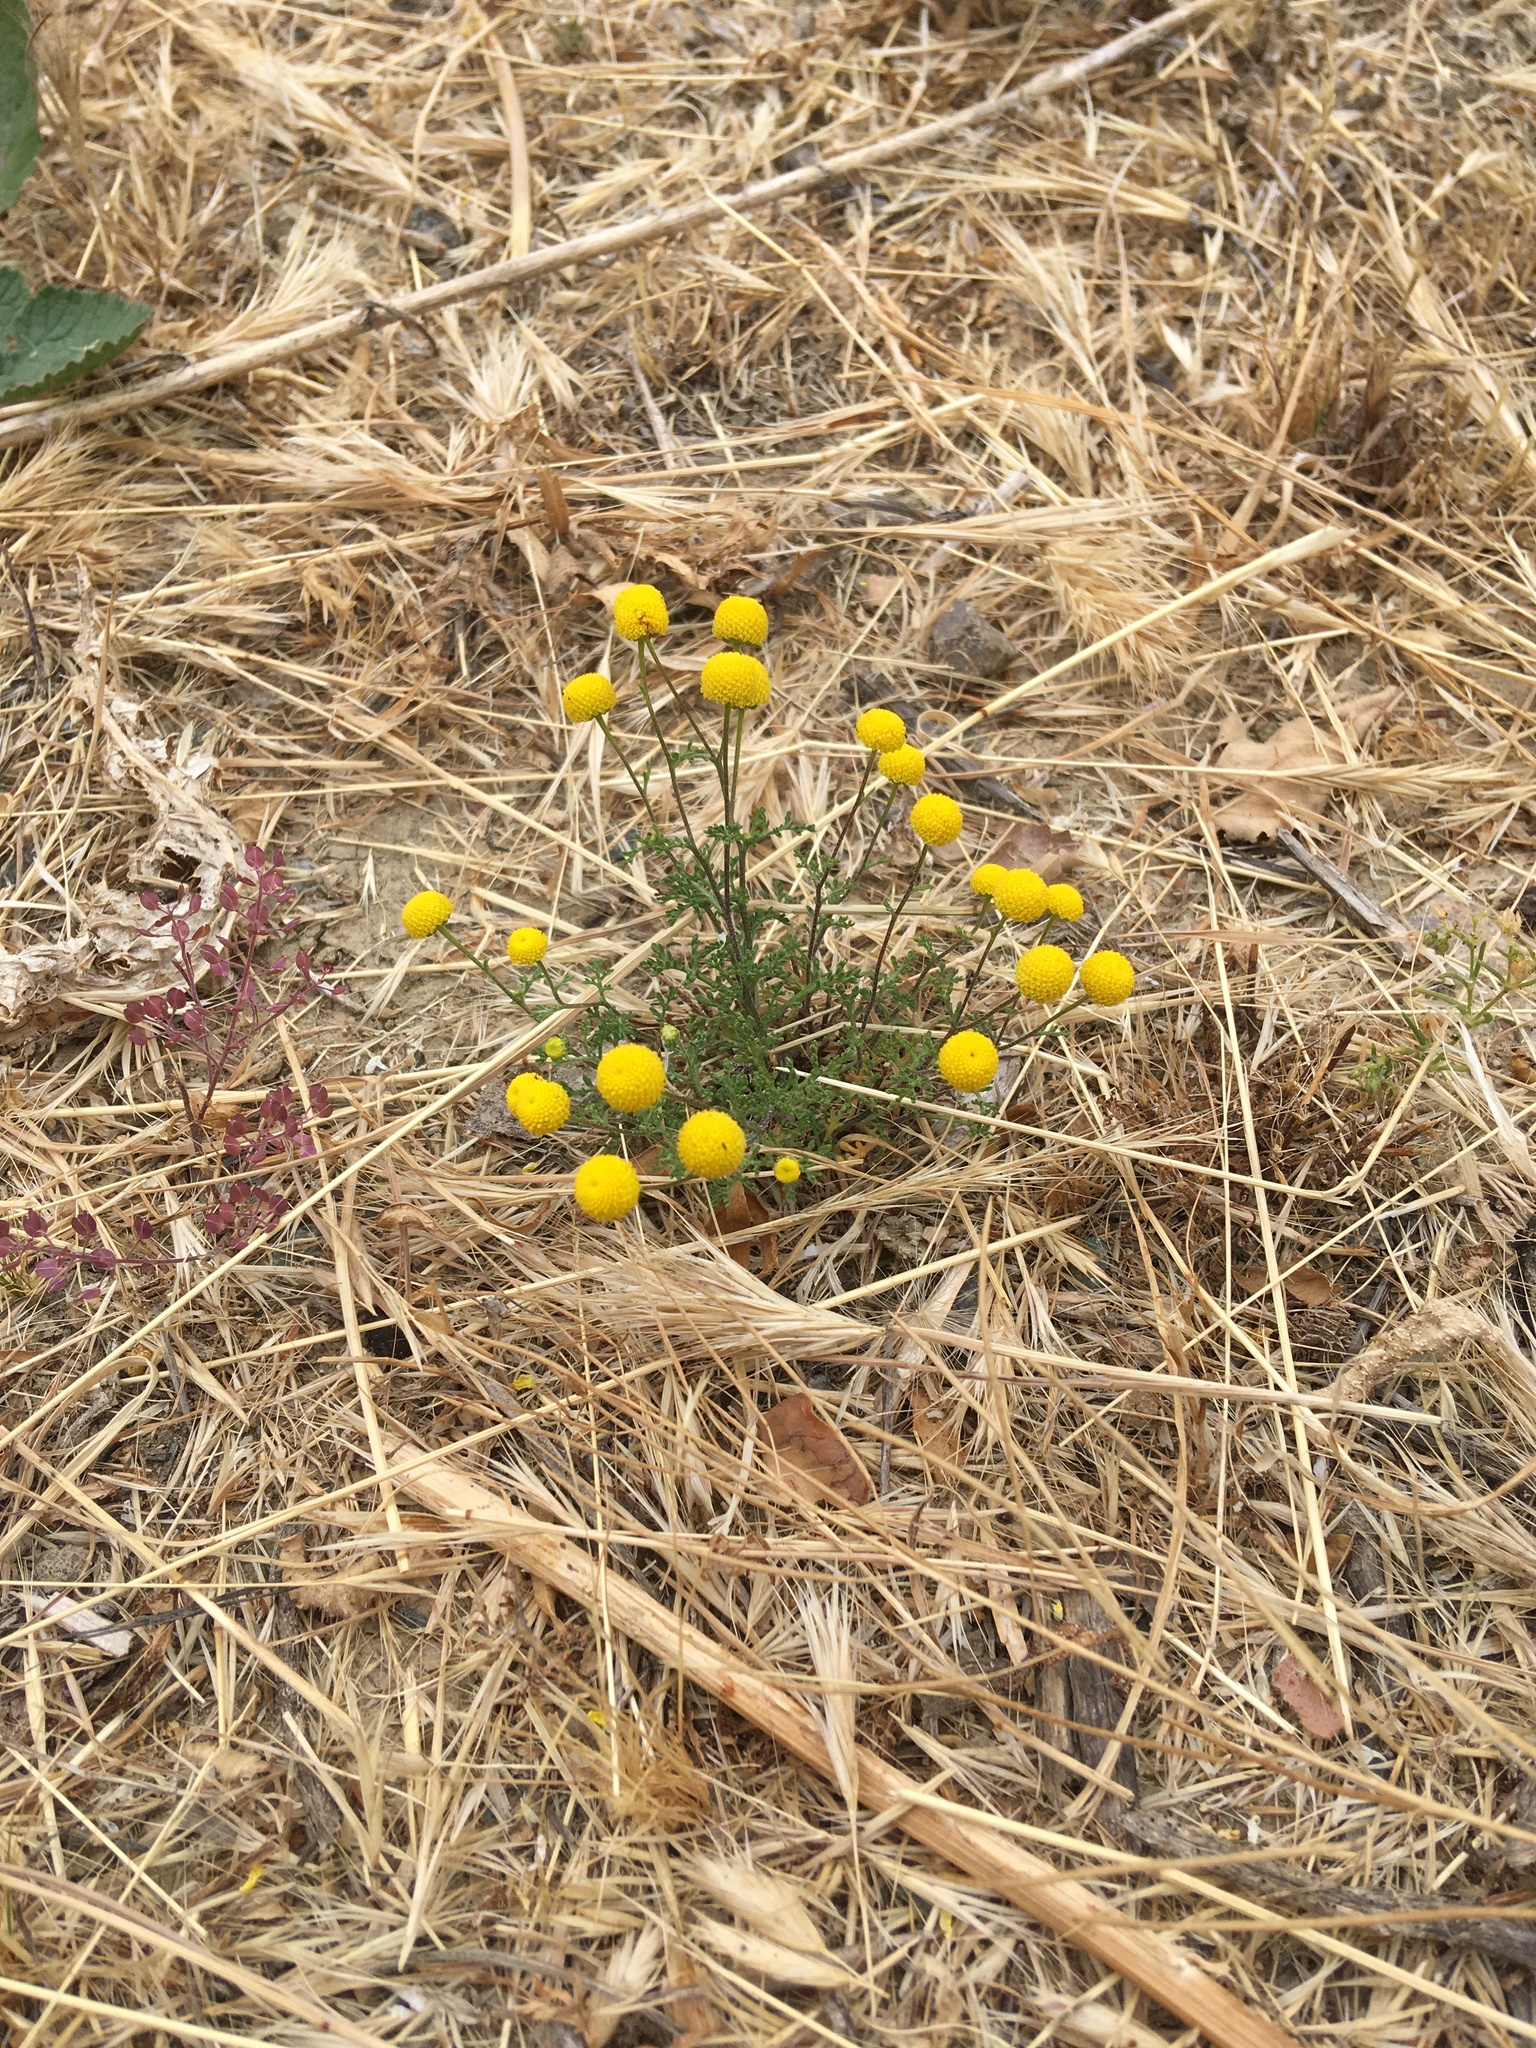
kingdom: Plantae
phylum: Tracheophyta
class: Magnoliopsida
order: Asterales
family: Asteraceae
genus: Oncosiphon
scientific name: Oncosiphon pilulifer
